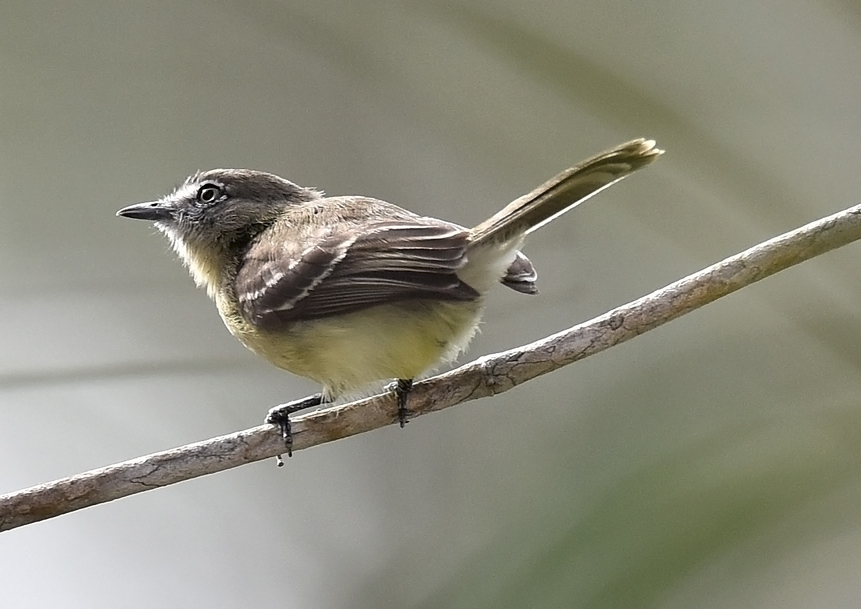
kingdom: Animalia
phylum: Chordata
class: Aves
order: Passeriformes
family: Tyrannidae
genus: Inezia
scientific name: Inezia caudata
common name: Pale-tipped inezia
